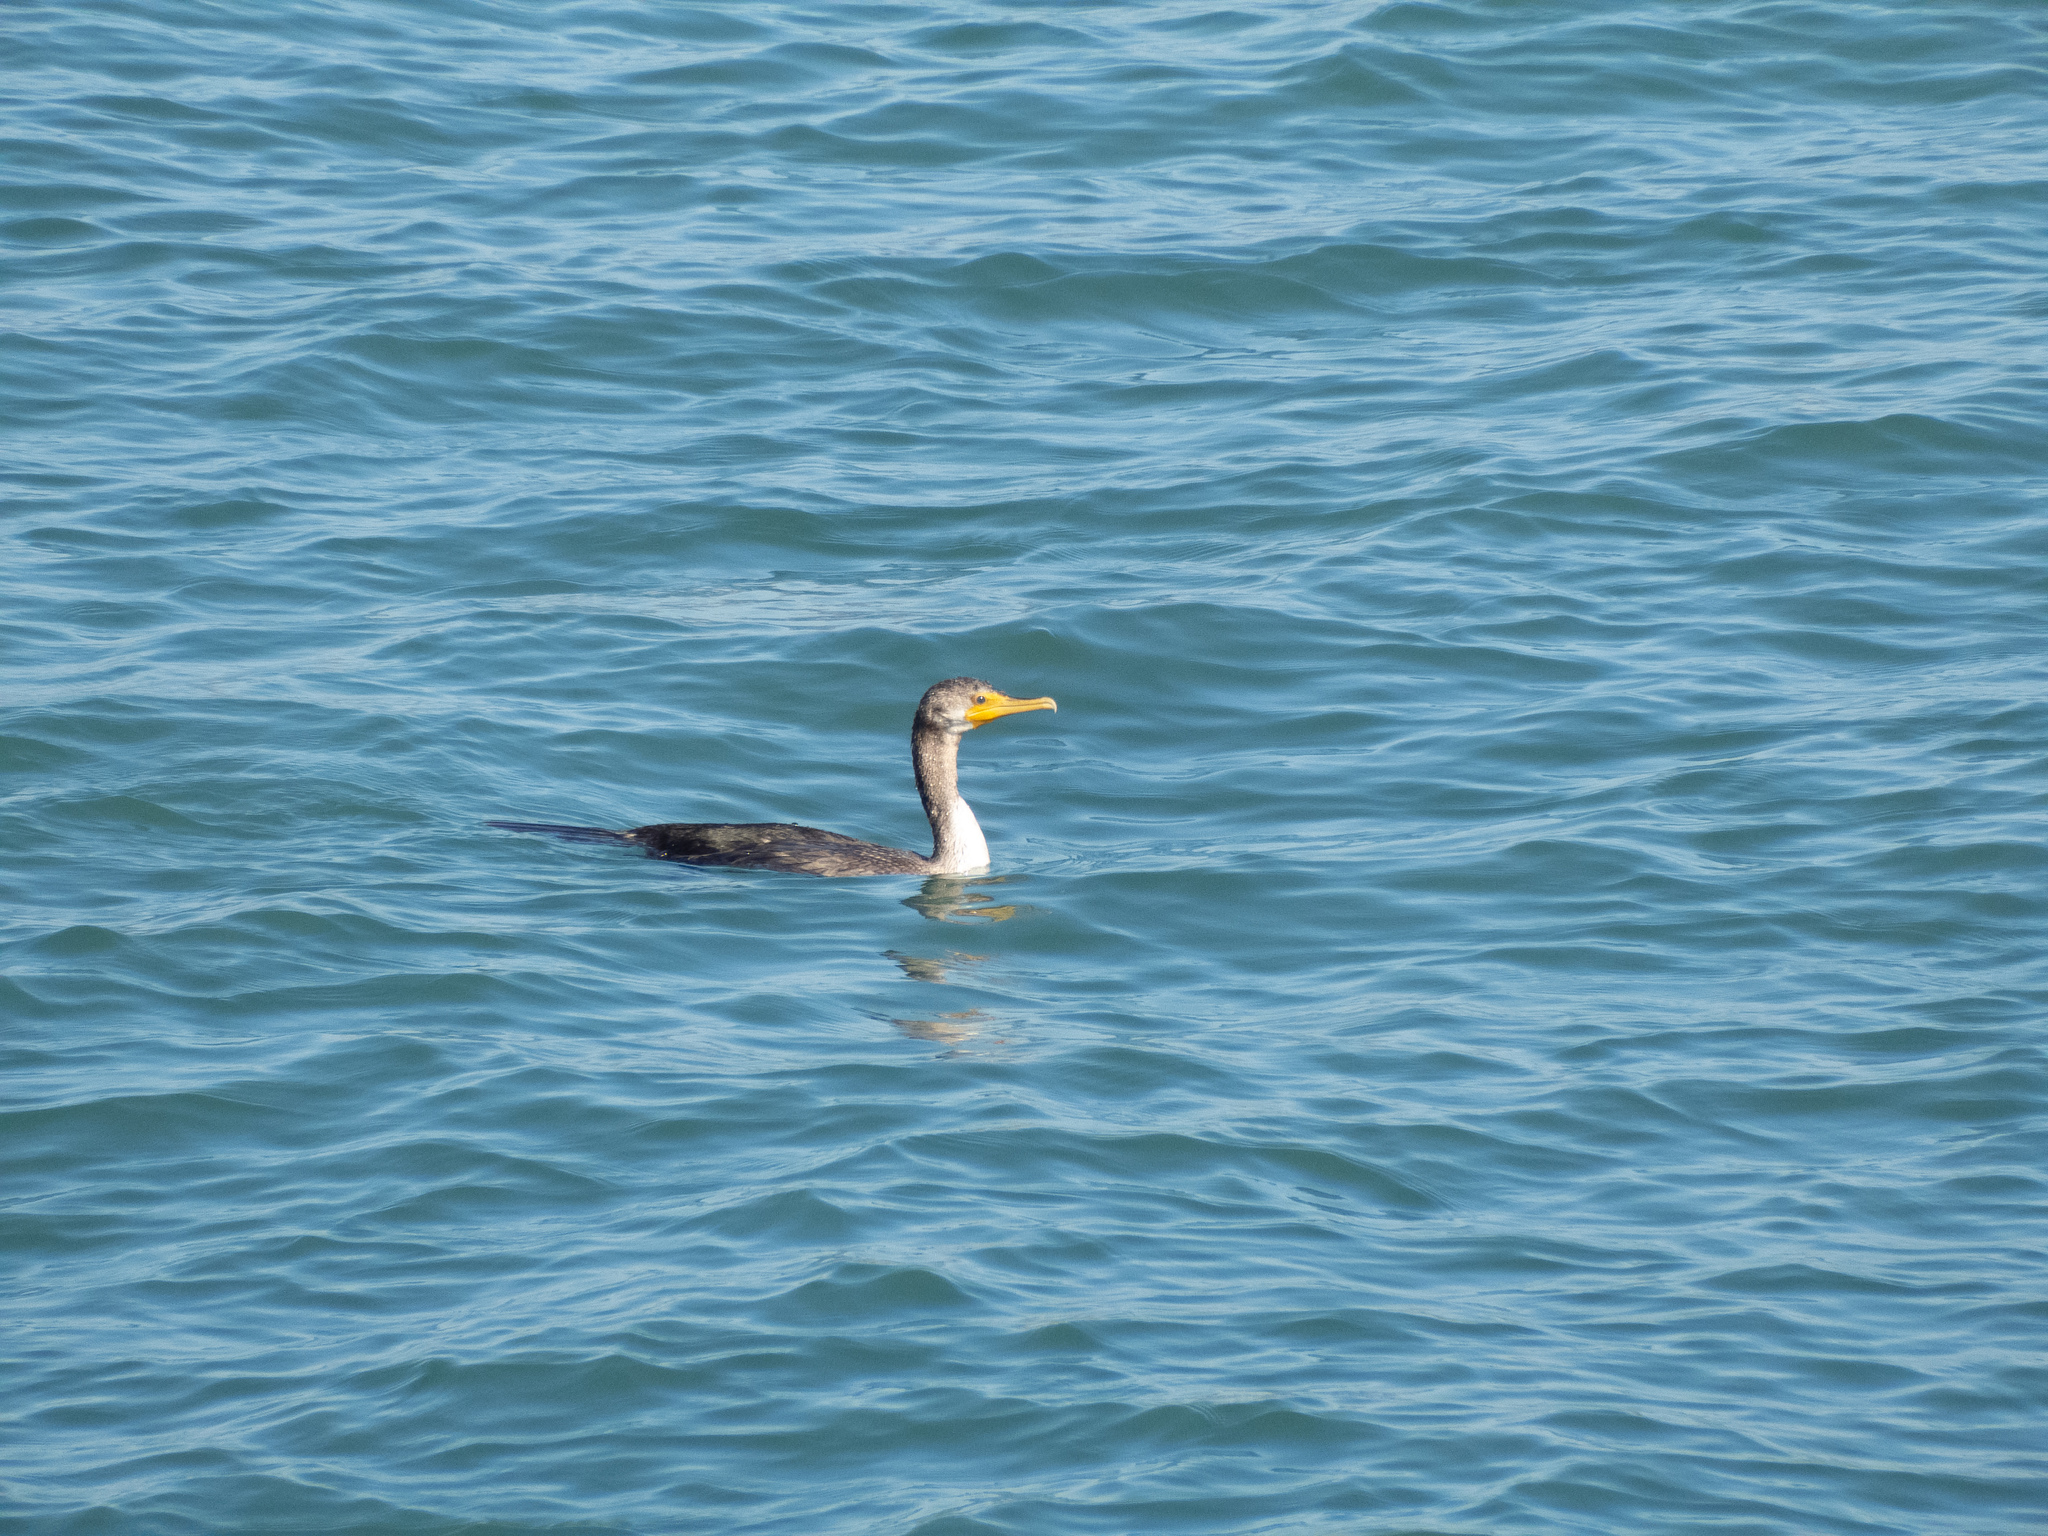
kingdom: Animalia
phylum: Chordata
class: Aves
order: Suliformes
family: Phalacrocoracidae
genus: Phalacrocorax
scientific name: Phalacrocorax auritus
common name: Double-crested cormorant
